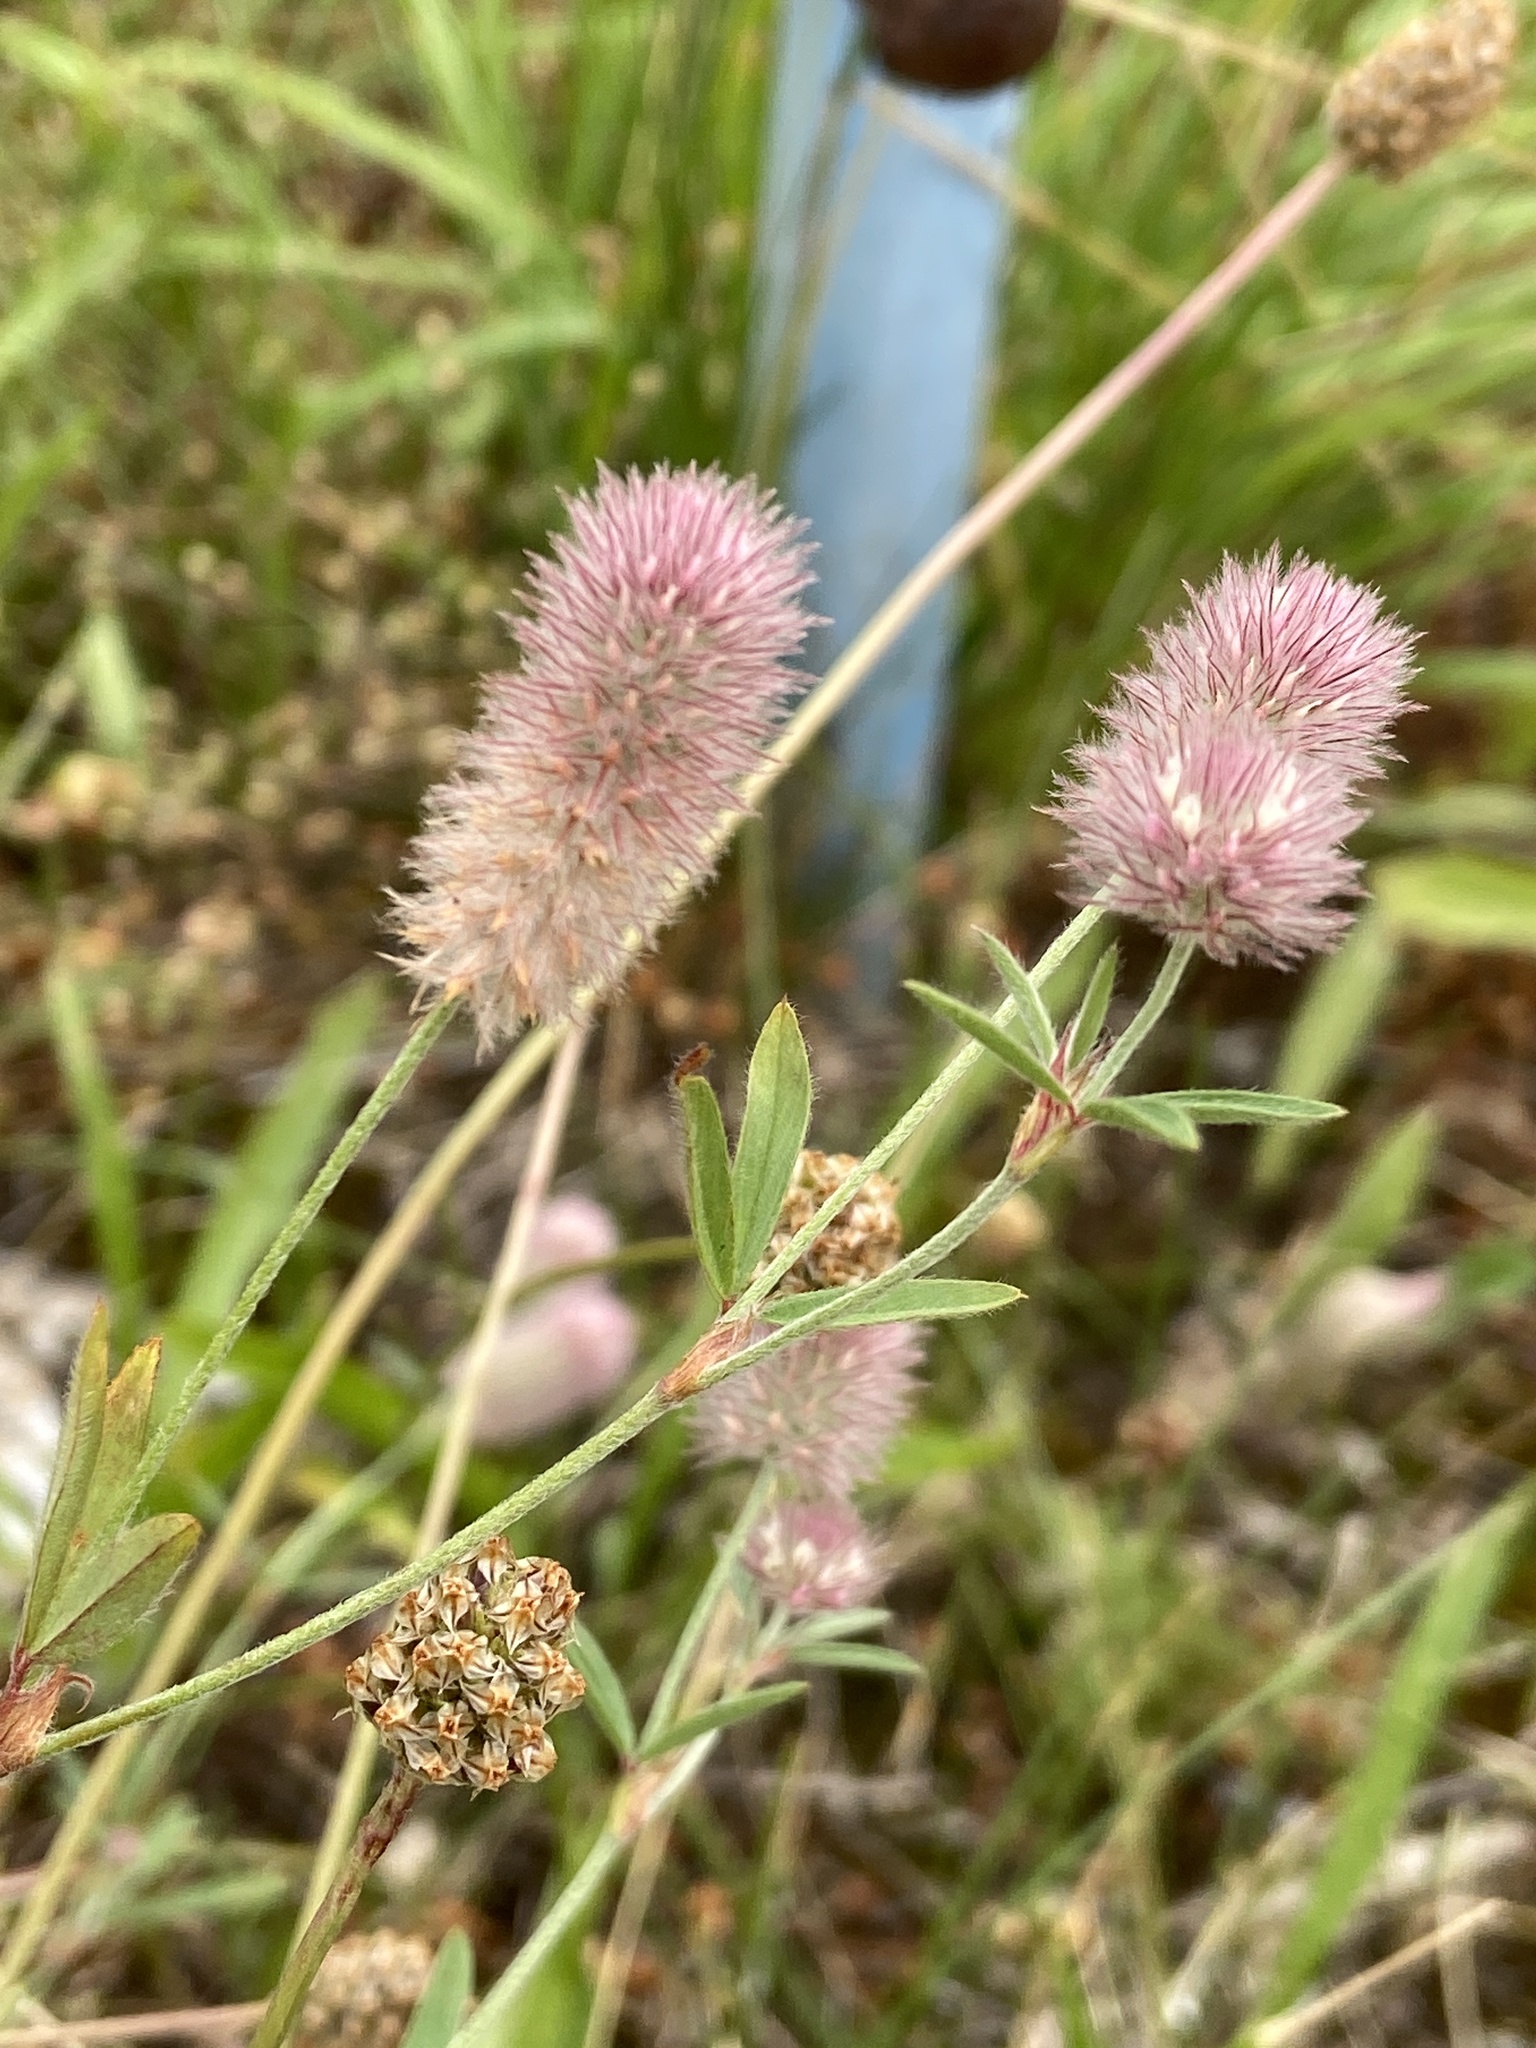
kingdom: Plantae
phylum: Tracheophyta
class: Magnoliopsida
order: Fabales
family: Fabaceae
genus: Trifolium
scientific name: Trifolium arvense
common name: Hare's-foot clover
